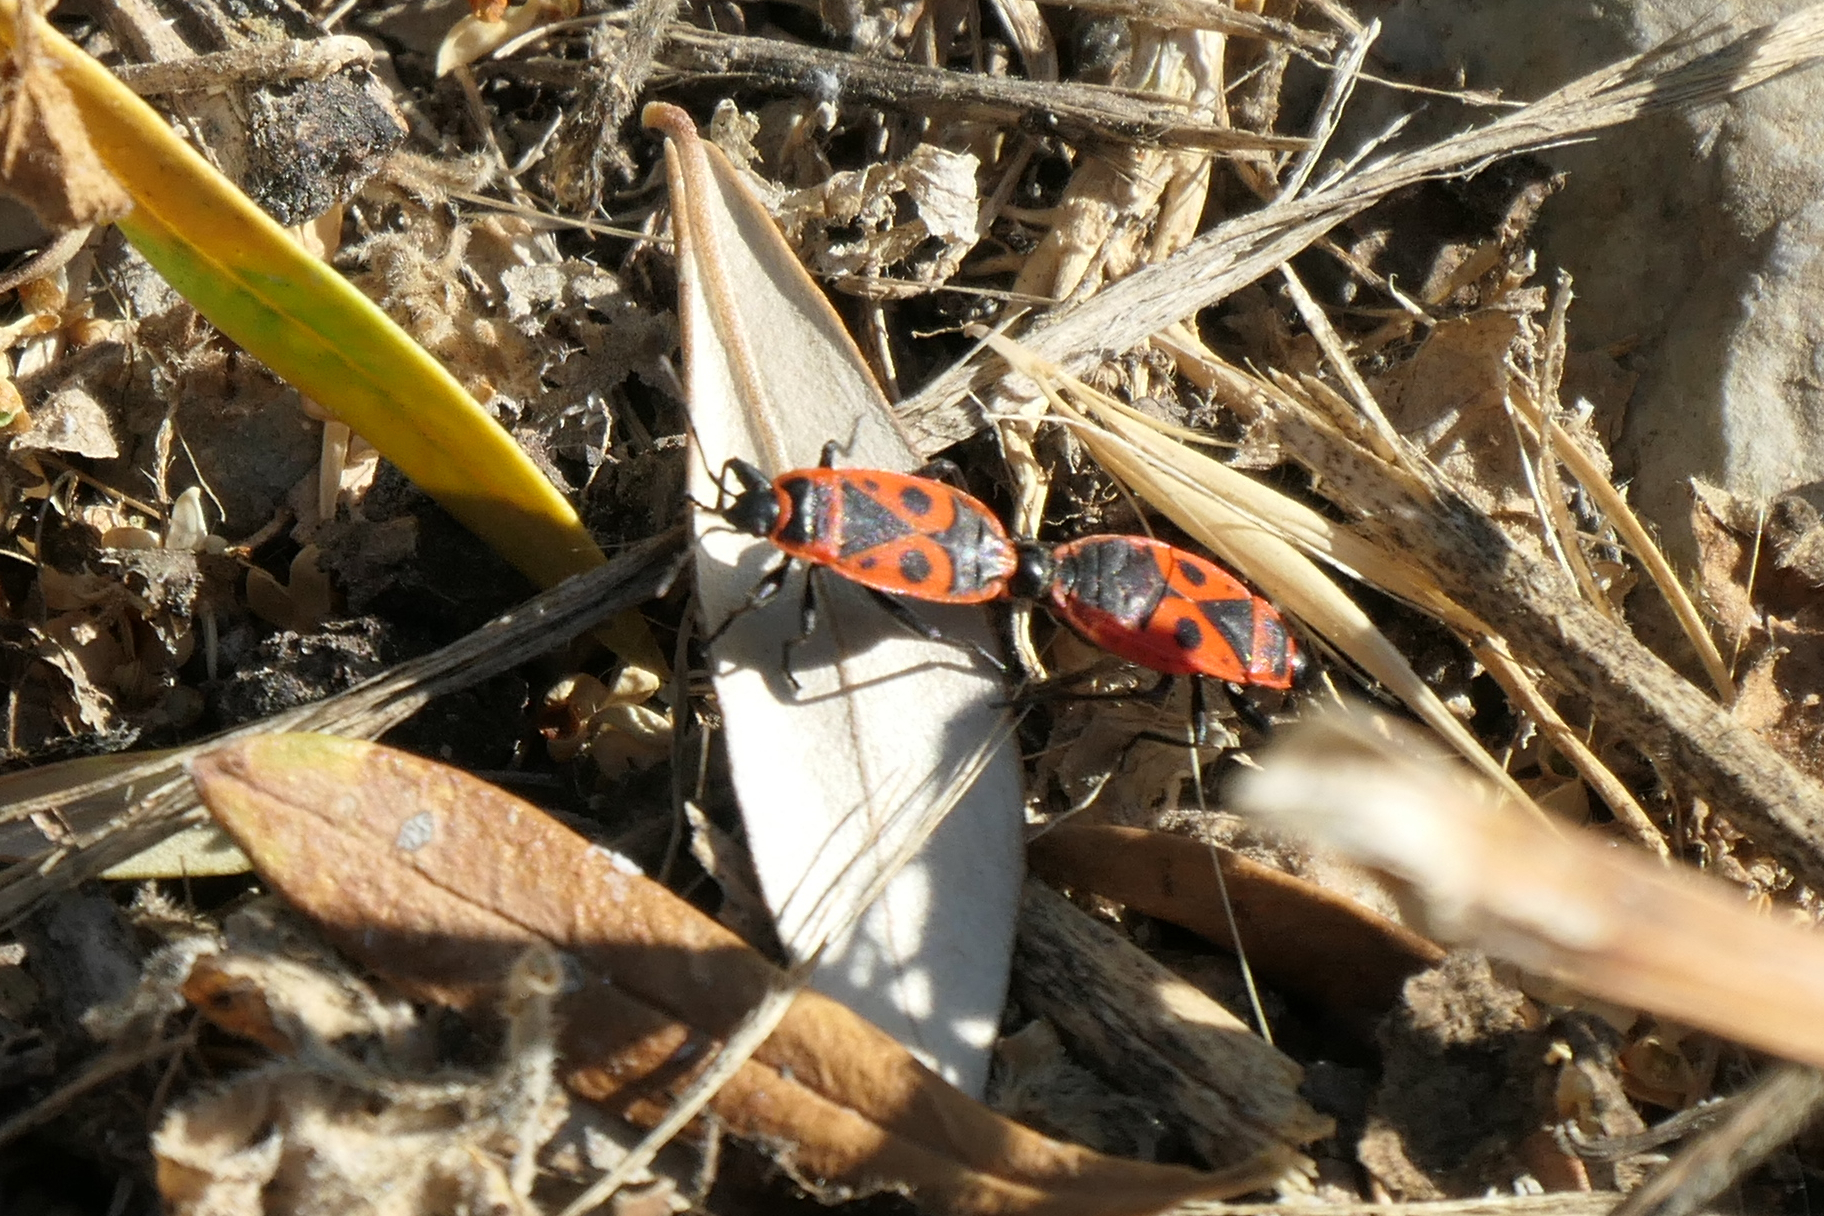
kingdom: Animalia
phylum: Arthropoda
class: Insecta
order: Hemiptera
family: Pyrrhocoridae
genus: Pyrrhocoris
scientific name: Pyrrhocoris apterus
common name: Firebug
